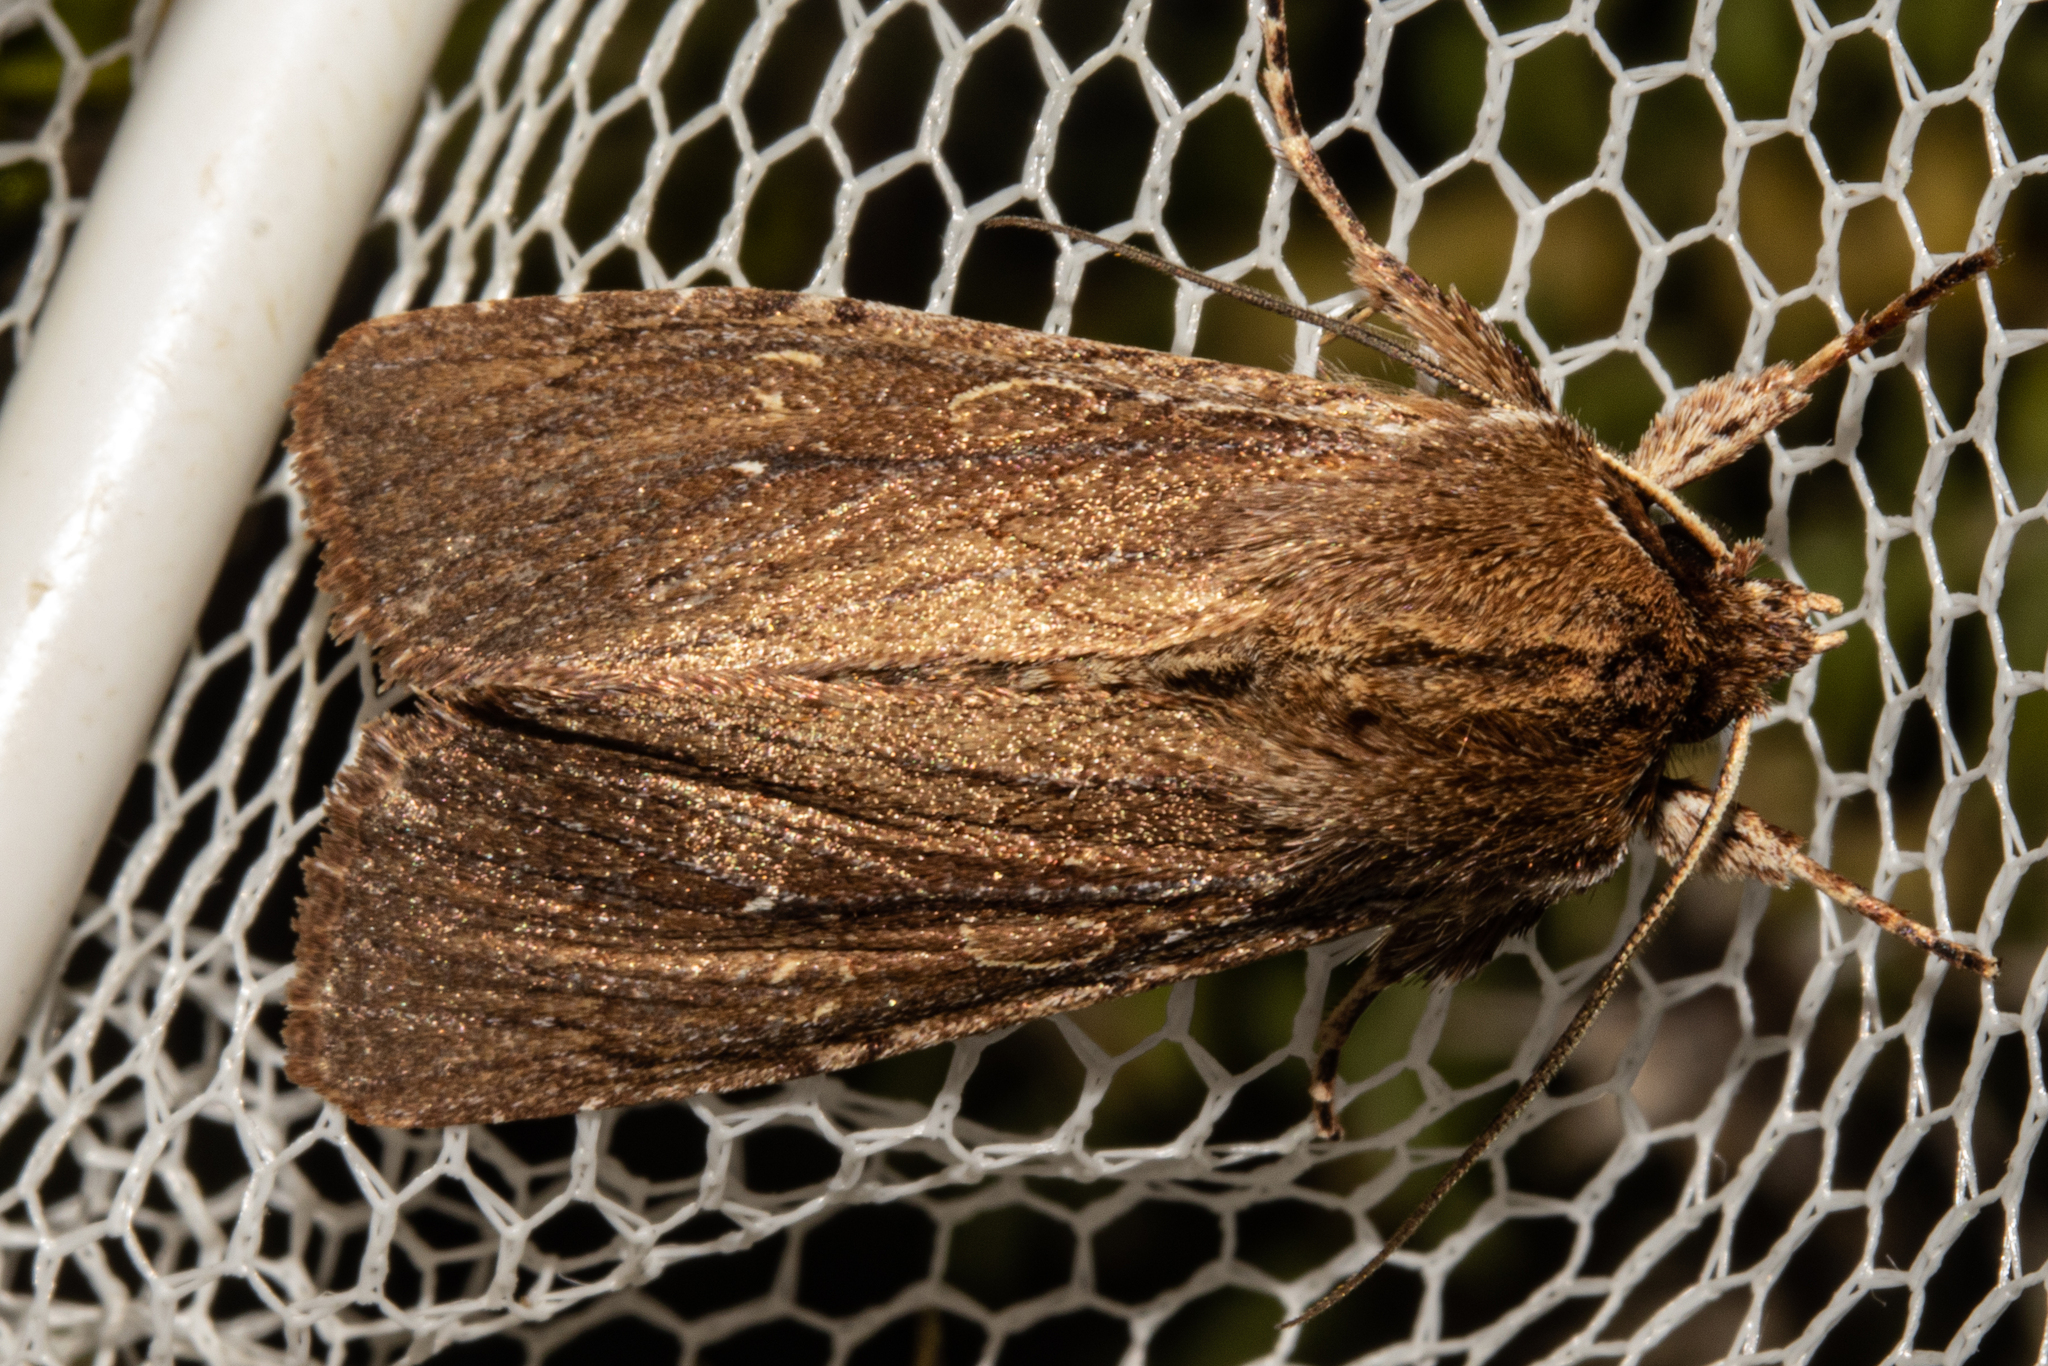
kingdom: Animalia
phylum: Arthropoda
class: Insecta
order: Lepidoptera
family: Noctuidae
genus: Ichneutica
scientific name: Ichneutica
